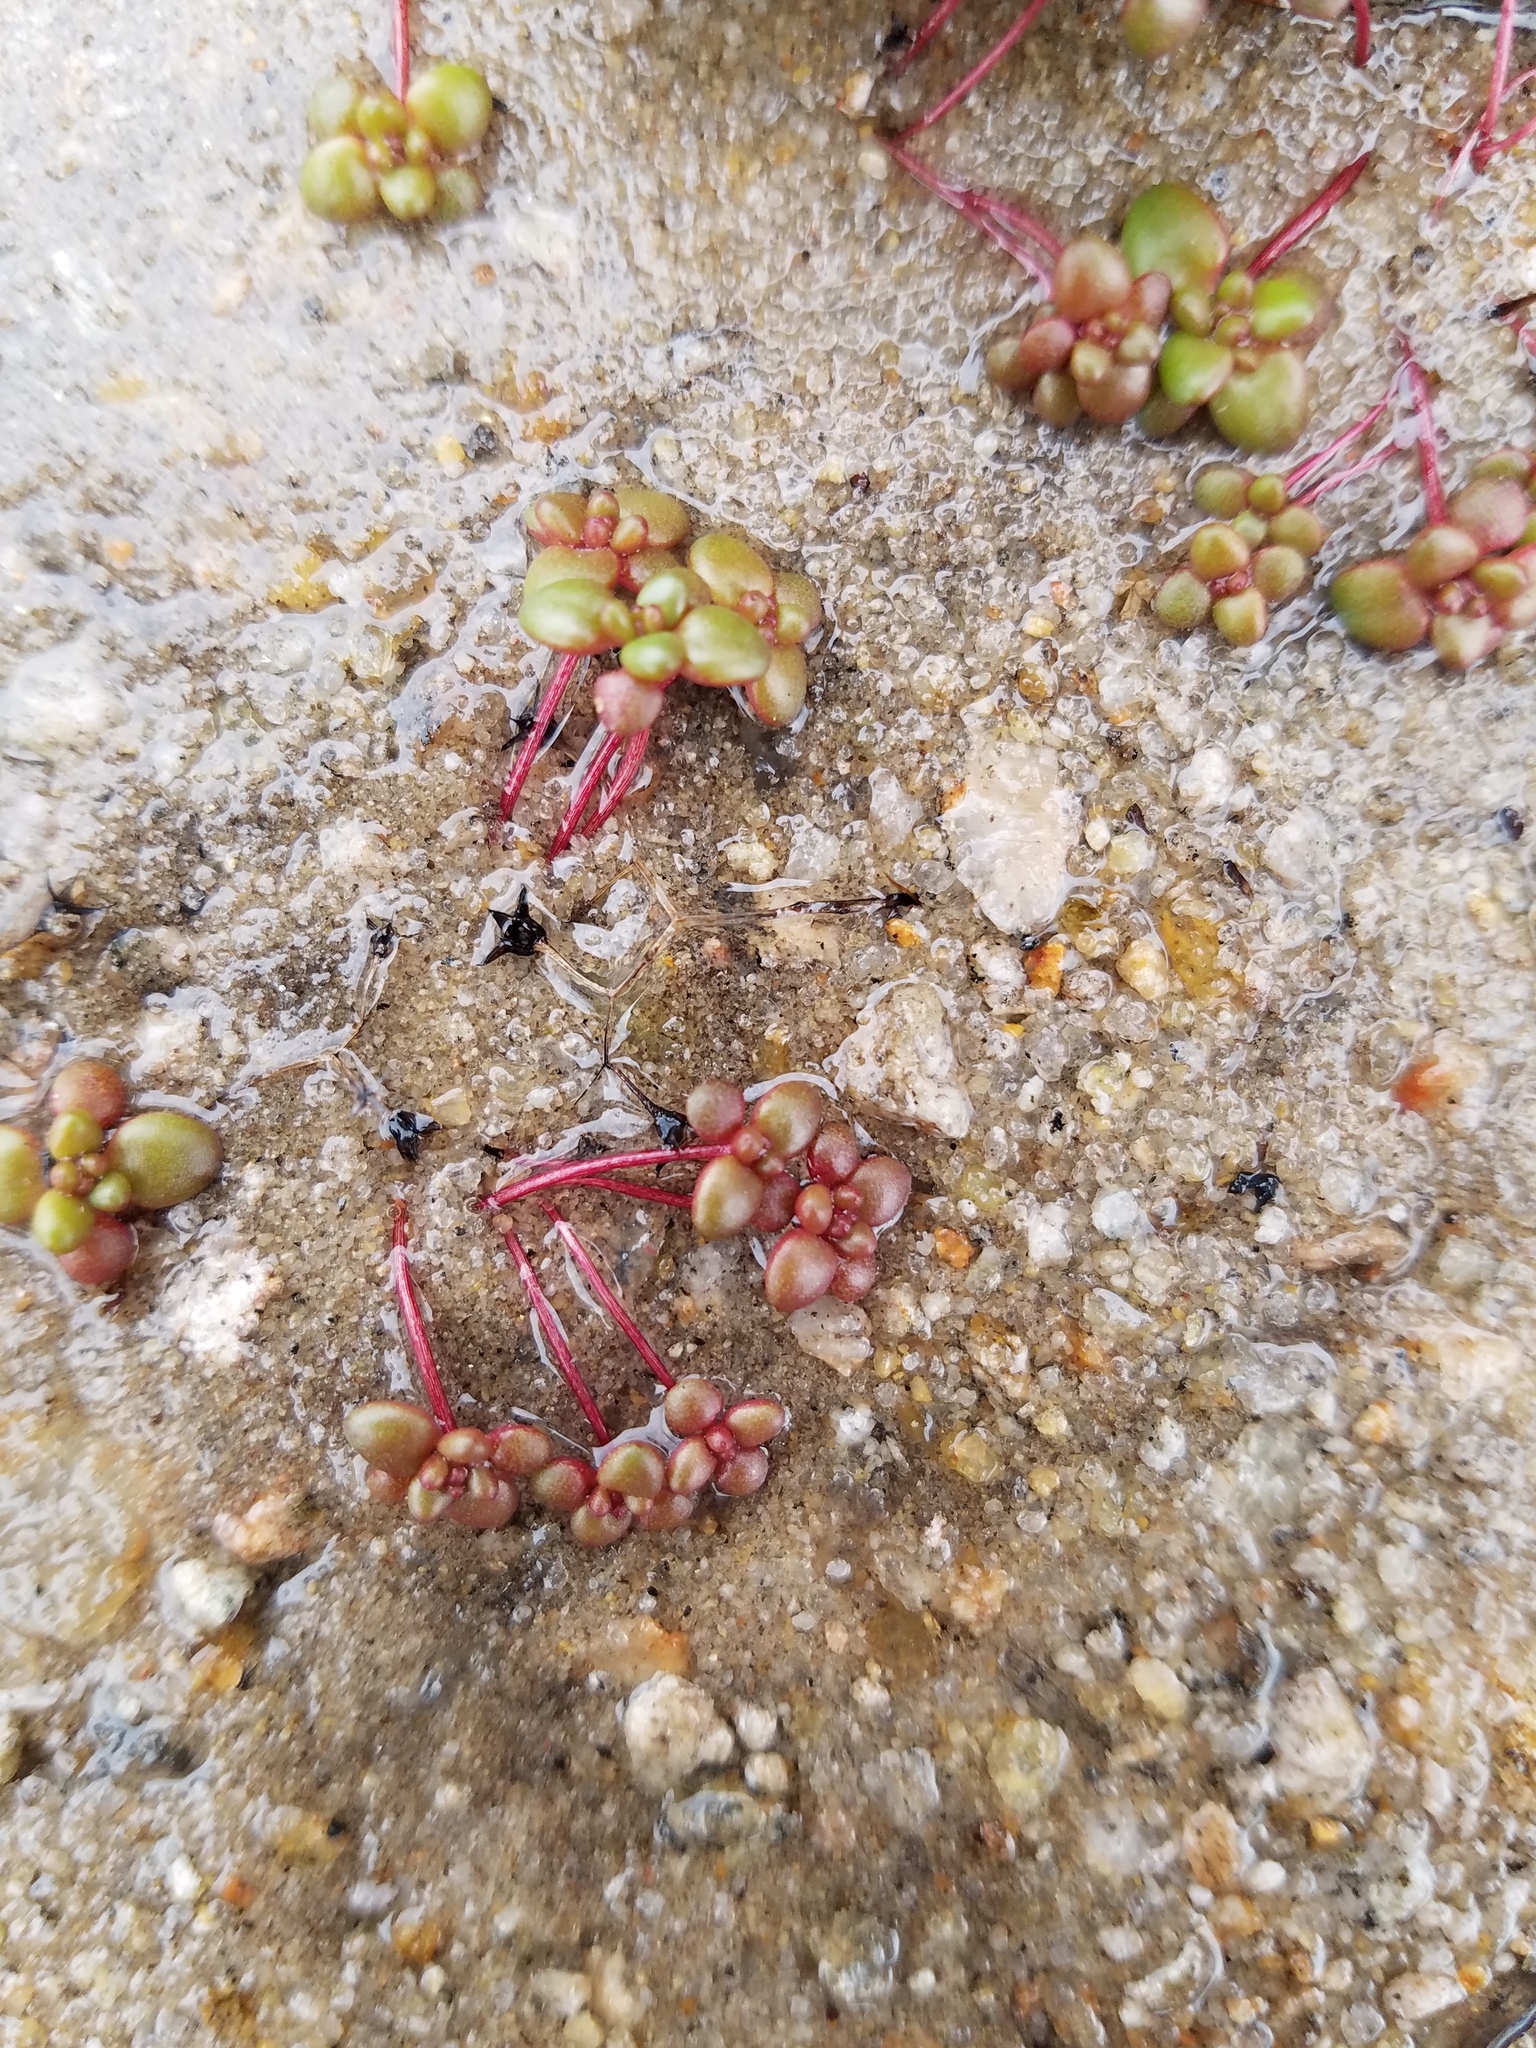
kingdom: Plantae
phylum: Tracheophyta
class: Magnoliopsida
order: Saxifragales
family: Crassulaceae
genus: Sedum
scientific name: Sedum smallii
